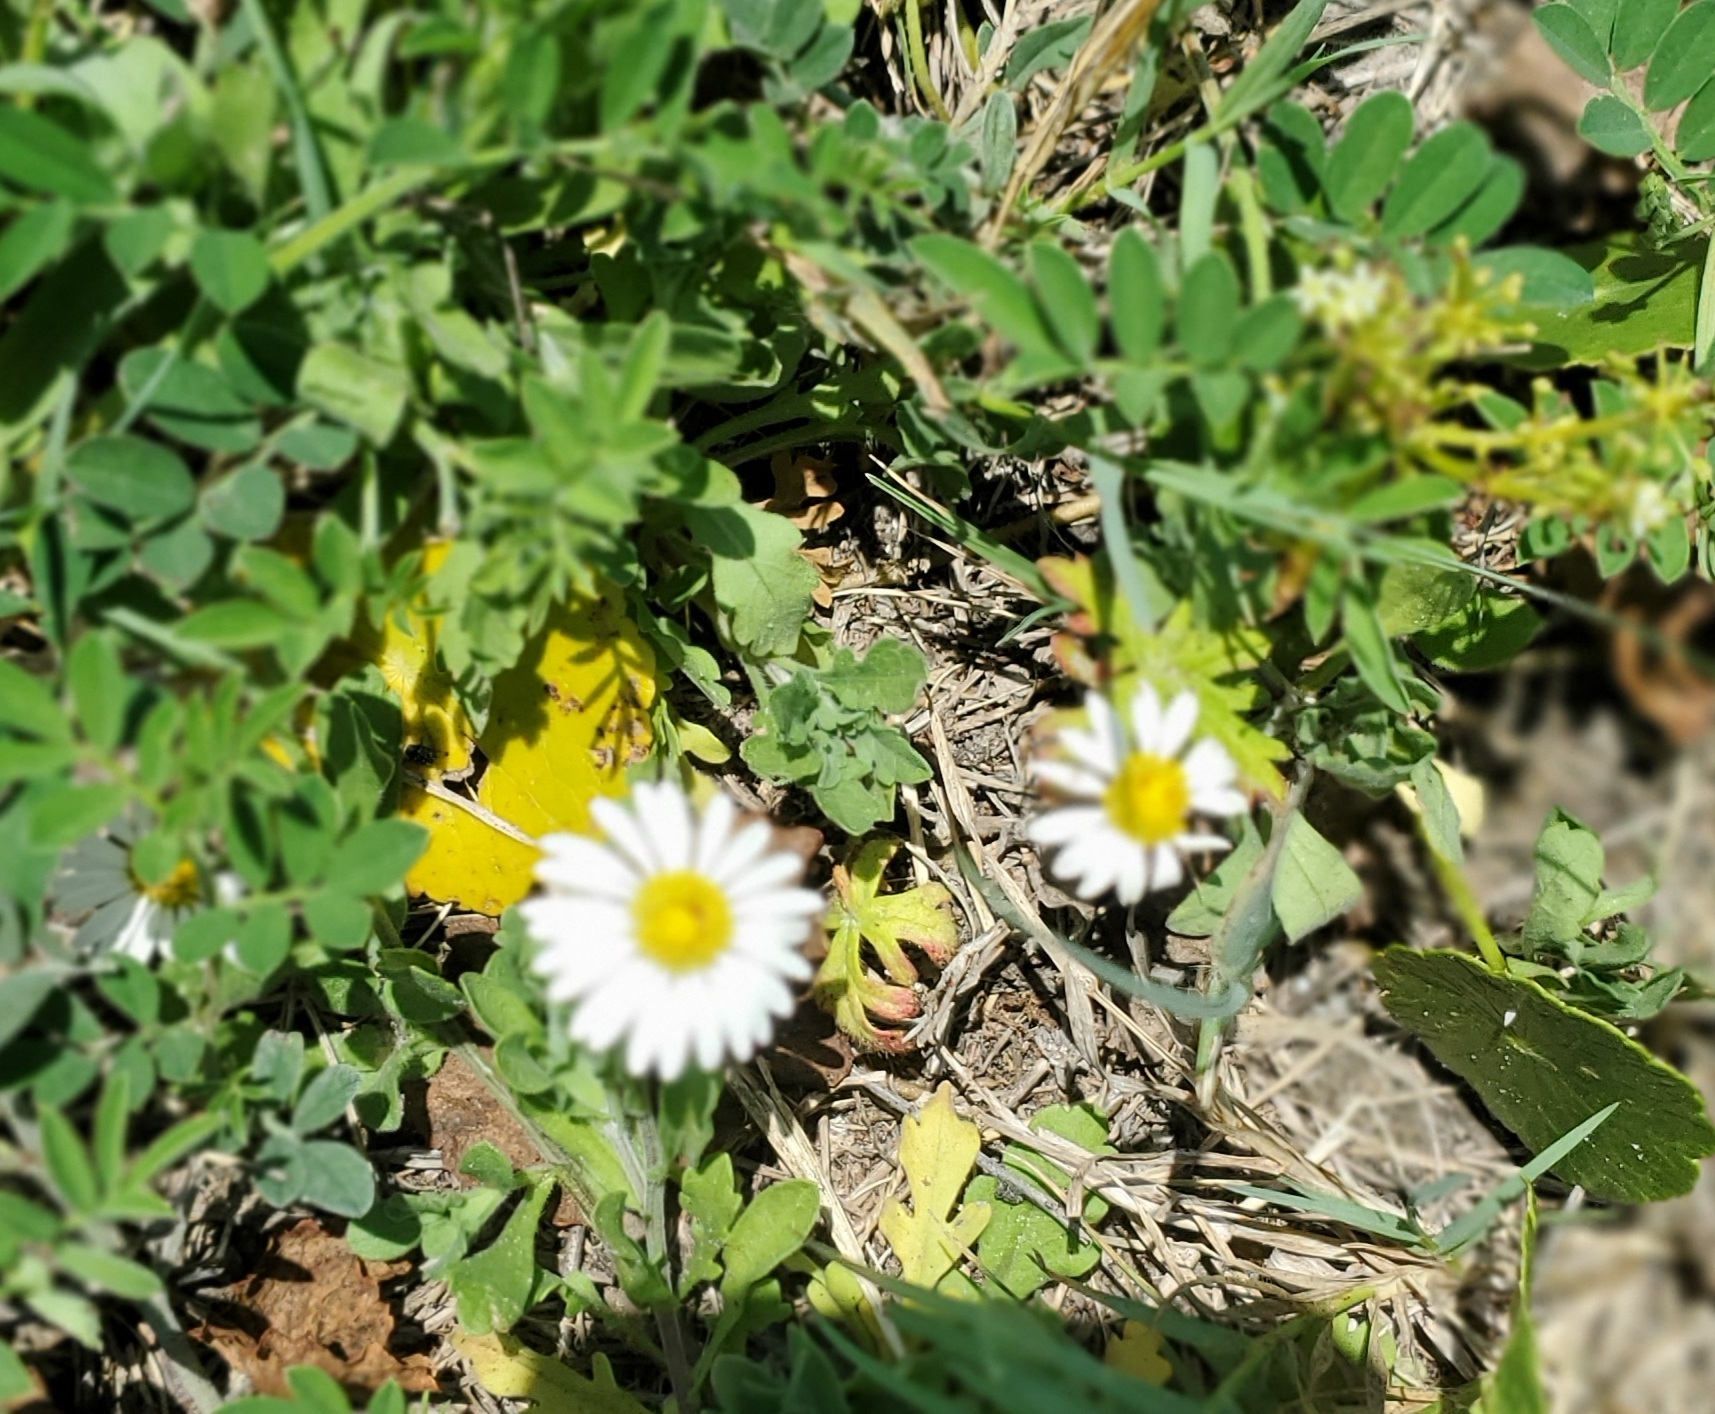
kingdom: Plantae
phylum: Tracheophyta
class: Magnoliopsida
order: Asterales
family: Asteraceae
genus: Aphanostephus
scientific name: Aphanostephus ramosissimus
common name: Plains lazy daisy
